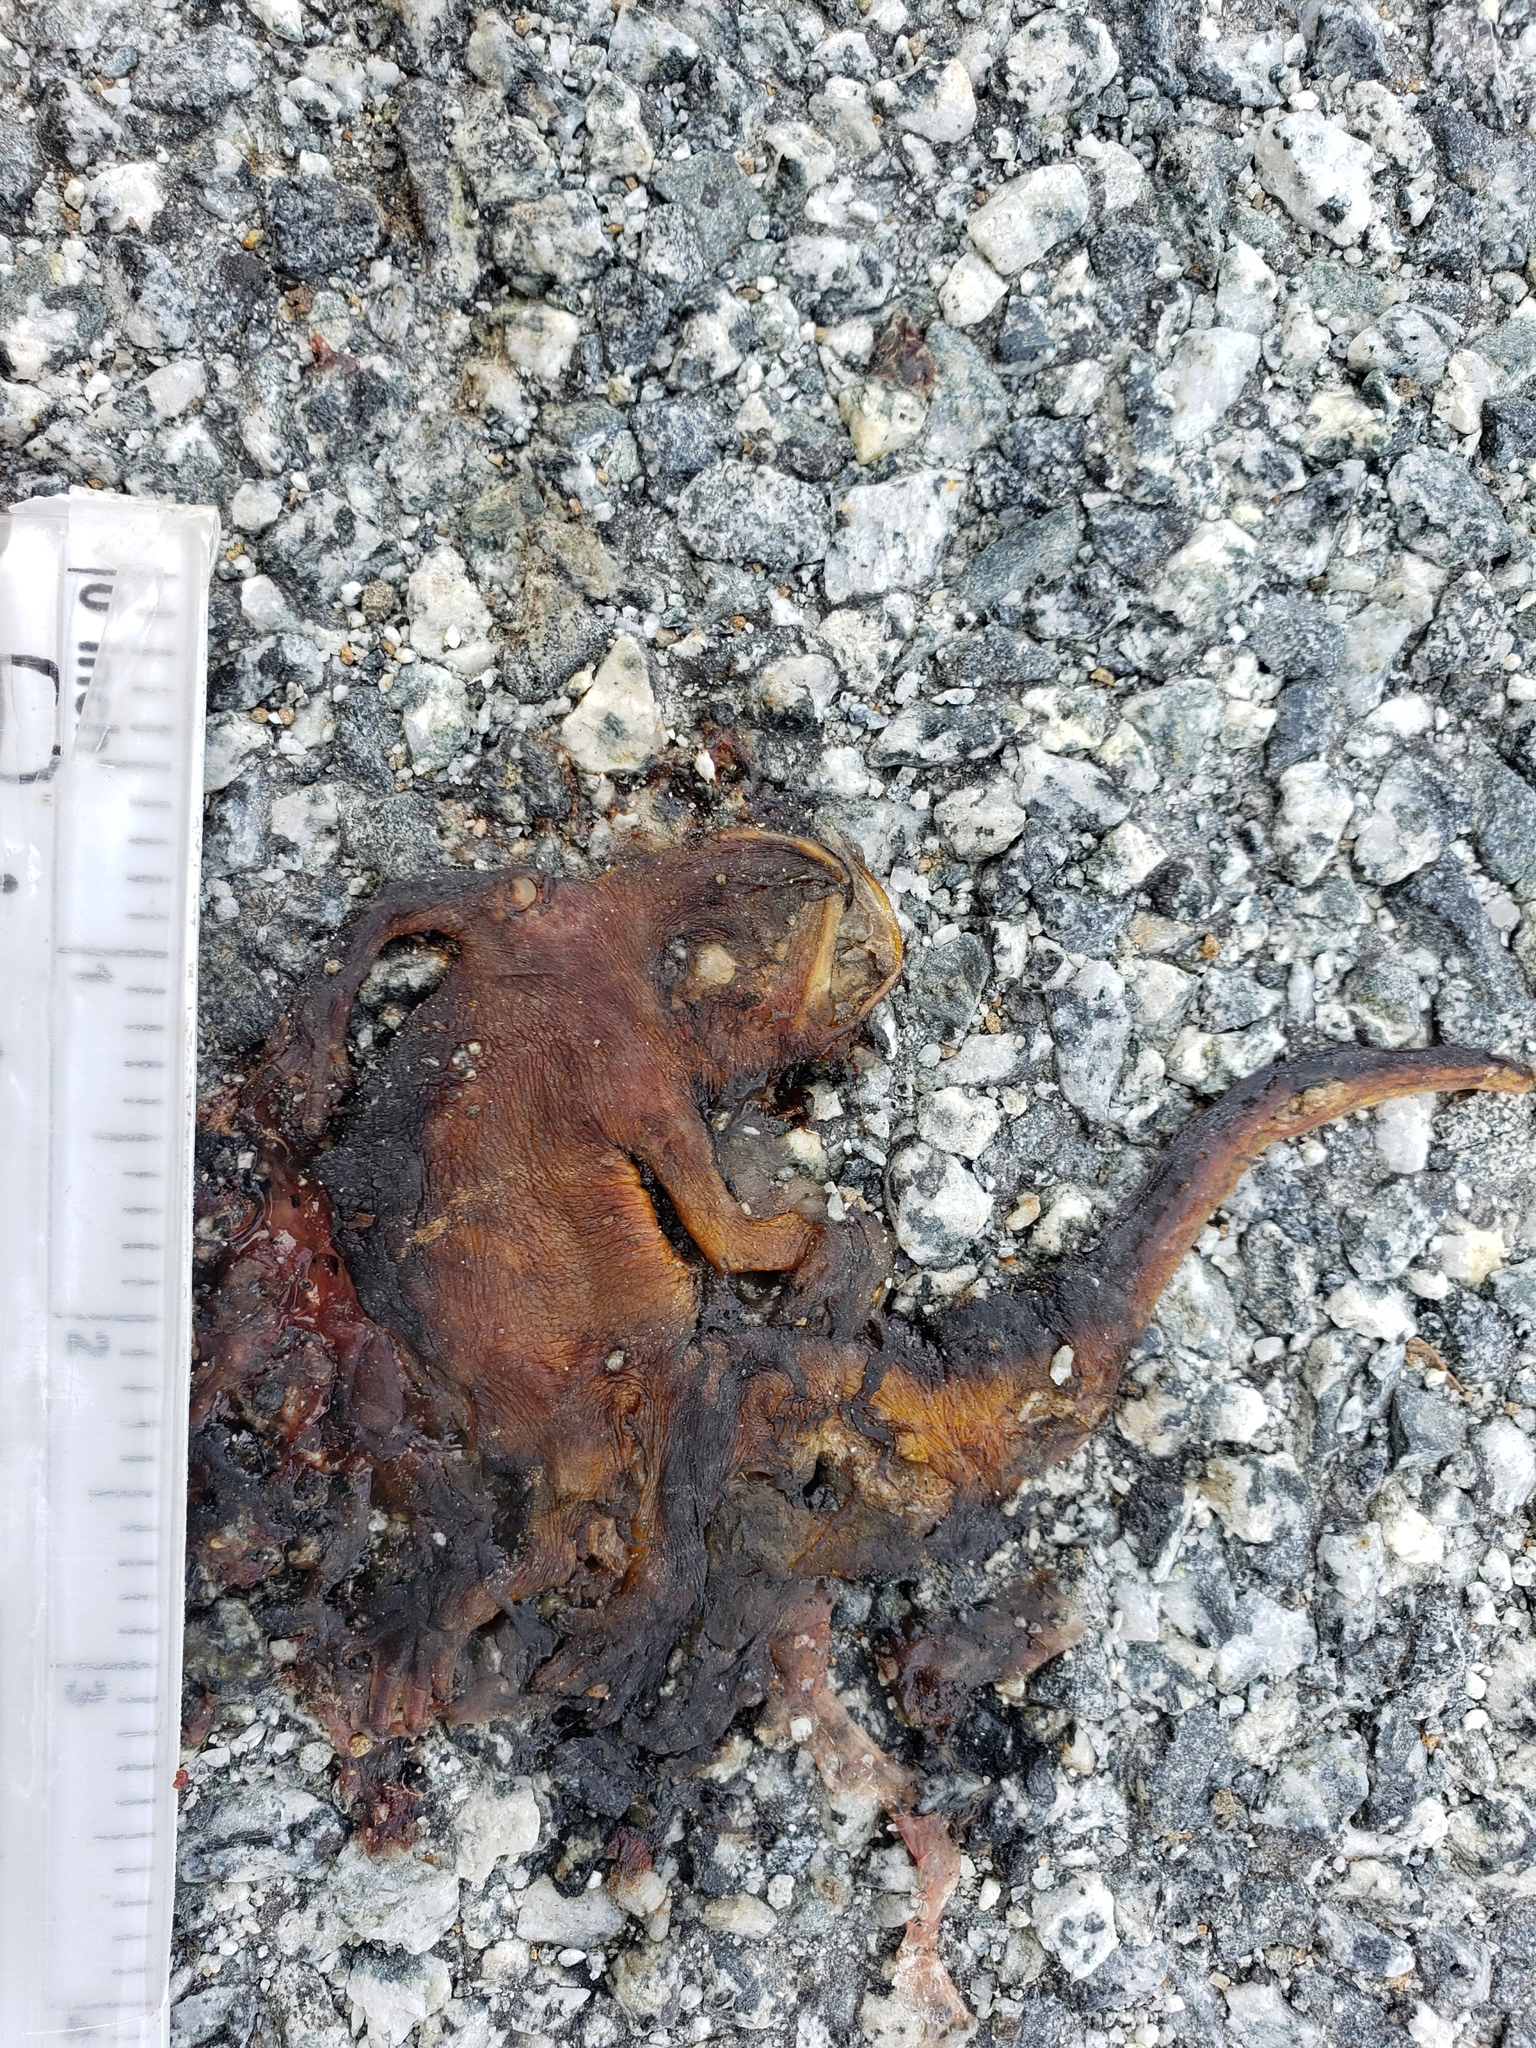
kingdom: Animalia
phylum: Chordata
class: Amphibia
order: Caudata
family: Salamandridae
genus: Taricha
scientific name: Taricha
